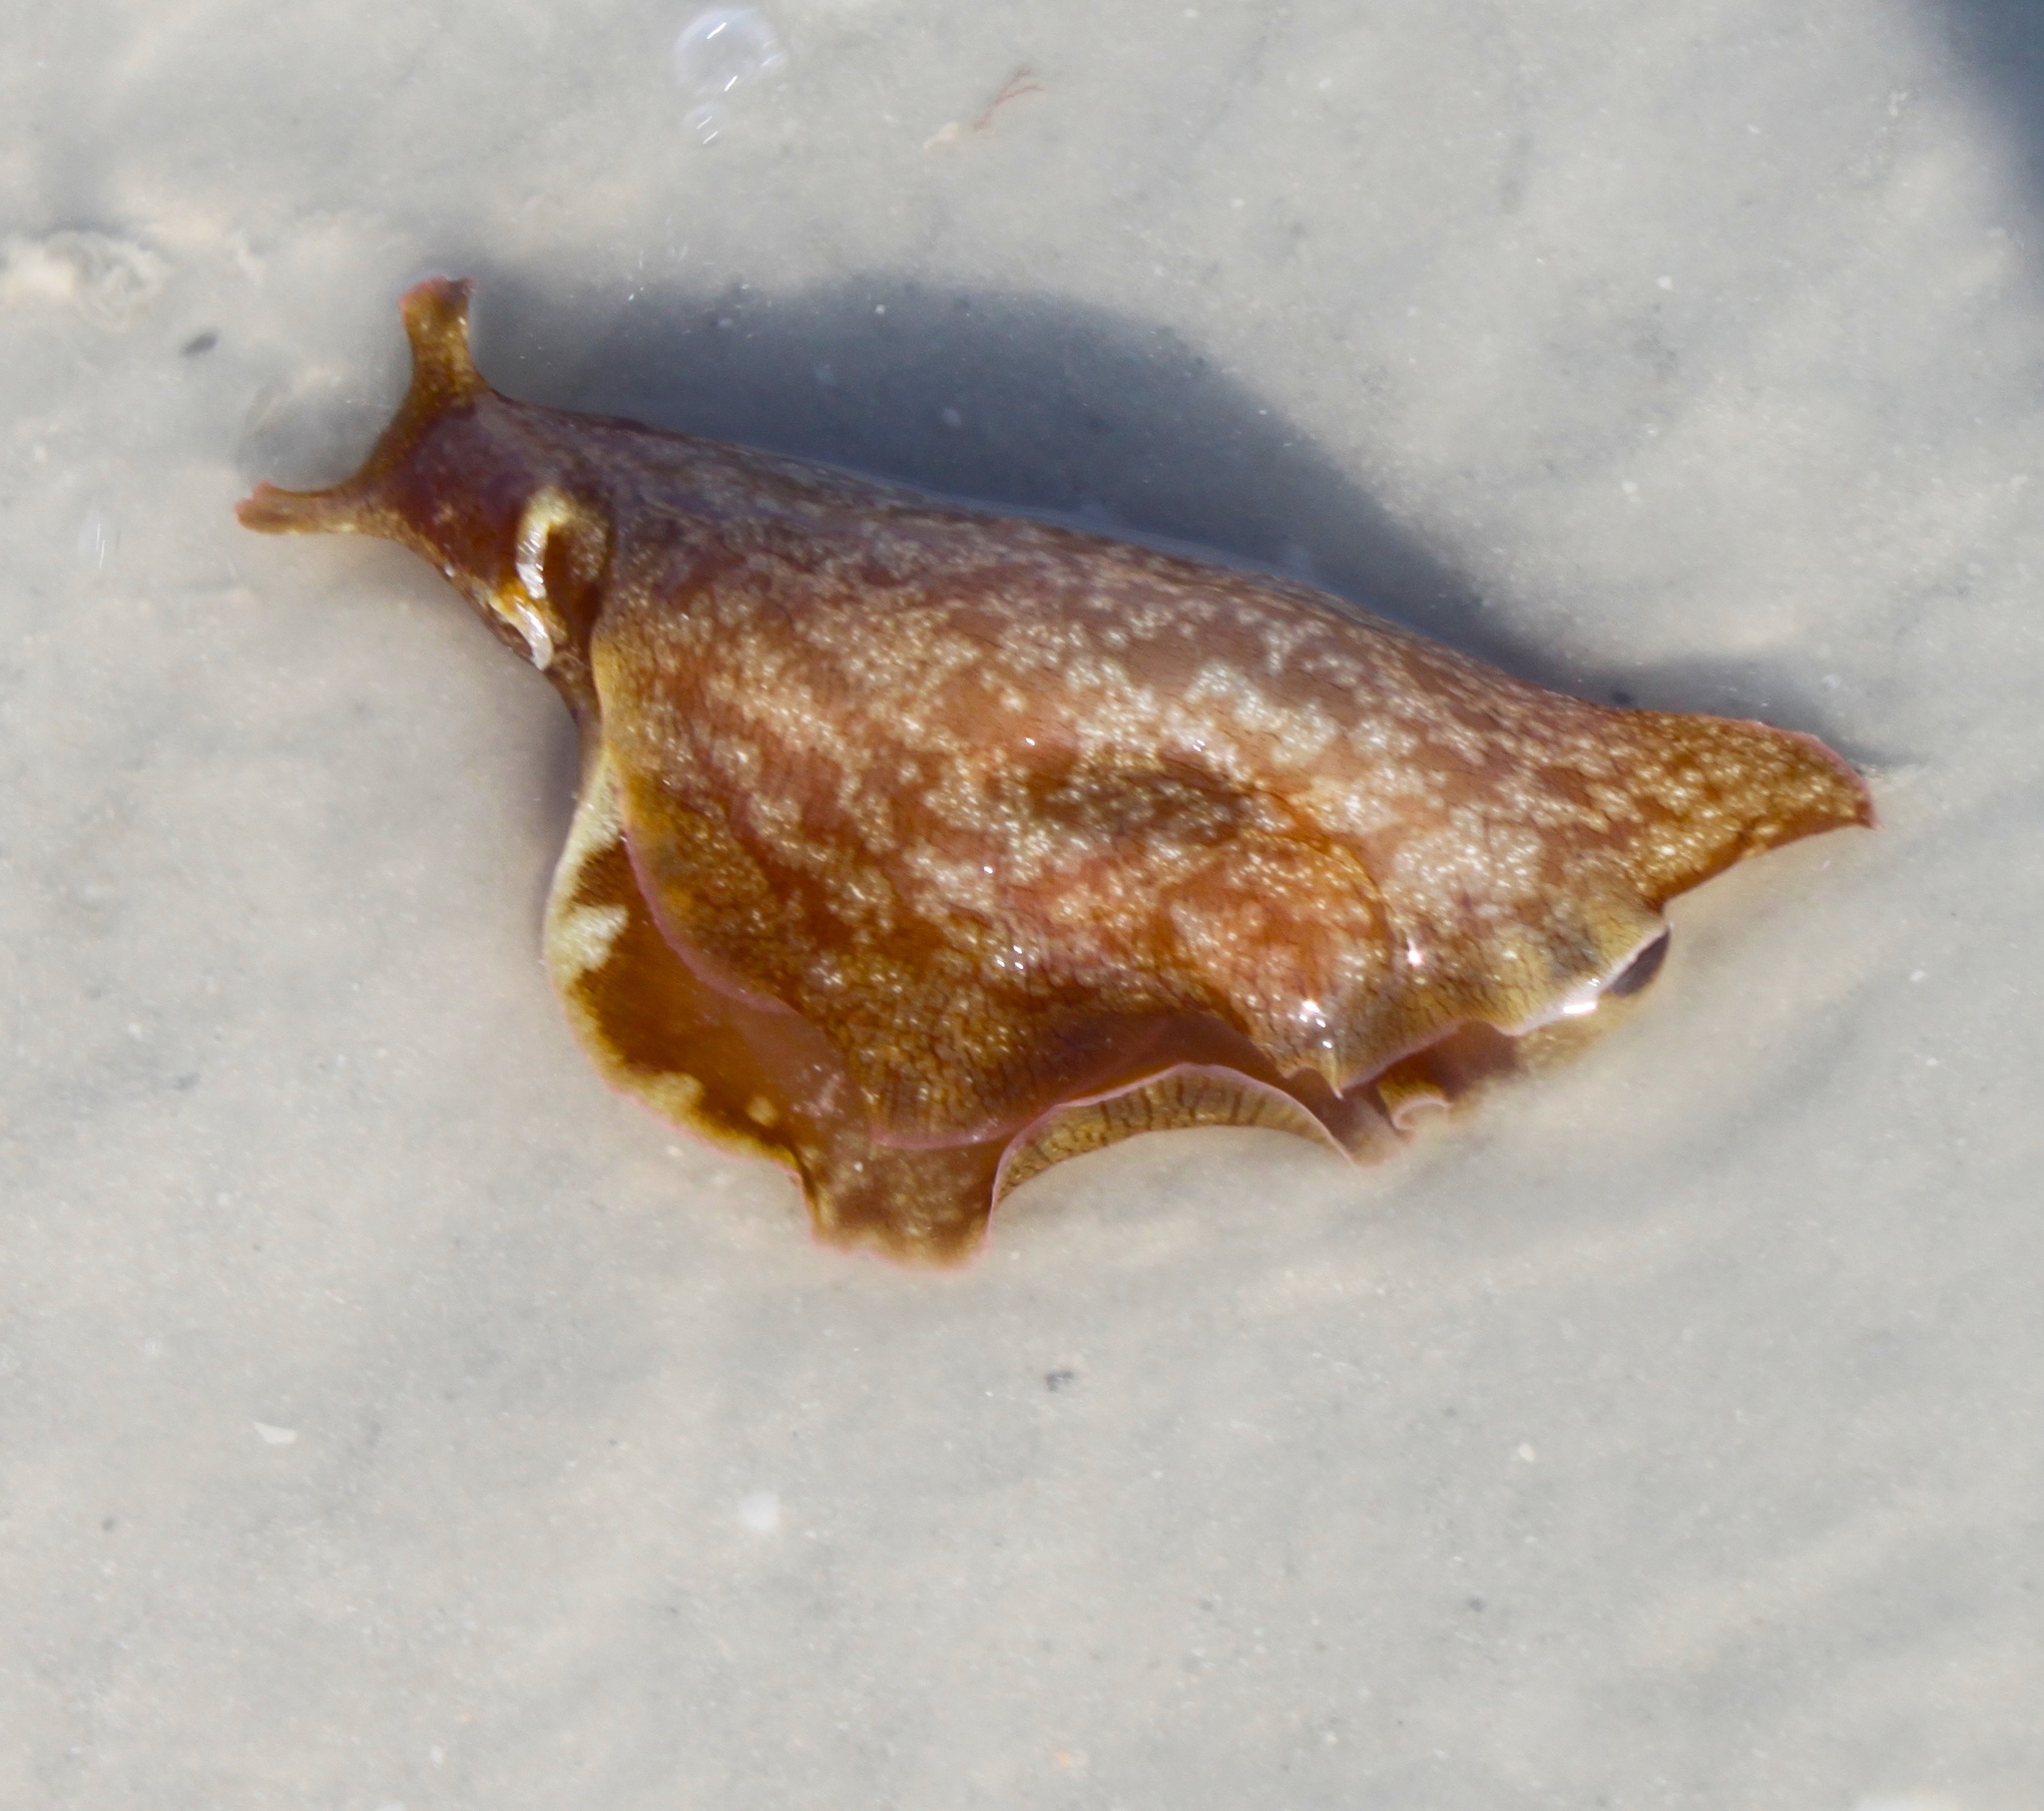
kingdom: Animalia
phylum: Mollusca
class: Gastropoda
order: Aplysiida
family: Aplysiidae
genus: Aplysia
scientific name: Aplysia brasiliana
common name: Mottled seahare
